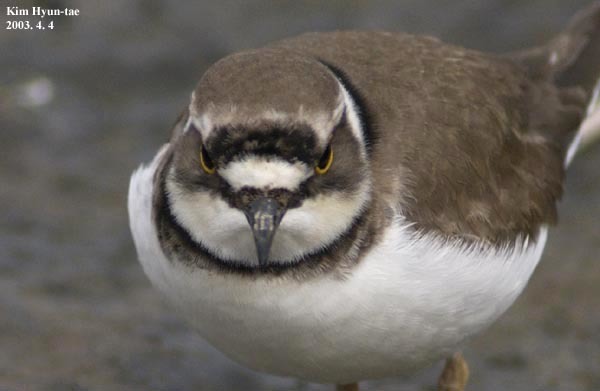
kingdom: Animalia
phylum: Chordata
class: Aves
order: Charadriiformes
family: Charadriidae
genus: Charadrius
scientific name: Charadrius dubius
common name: Little ringed plover
